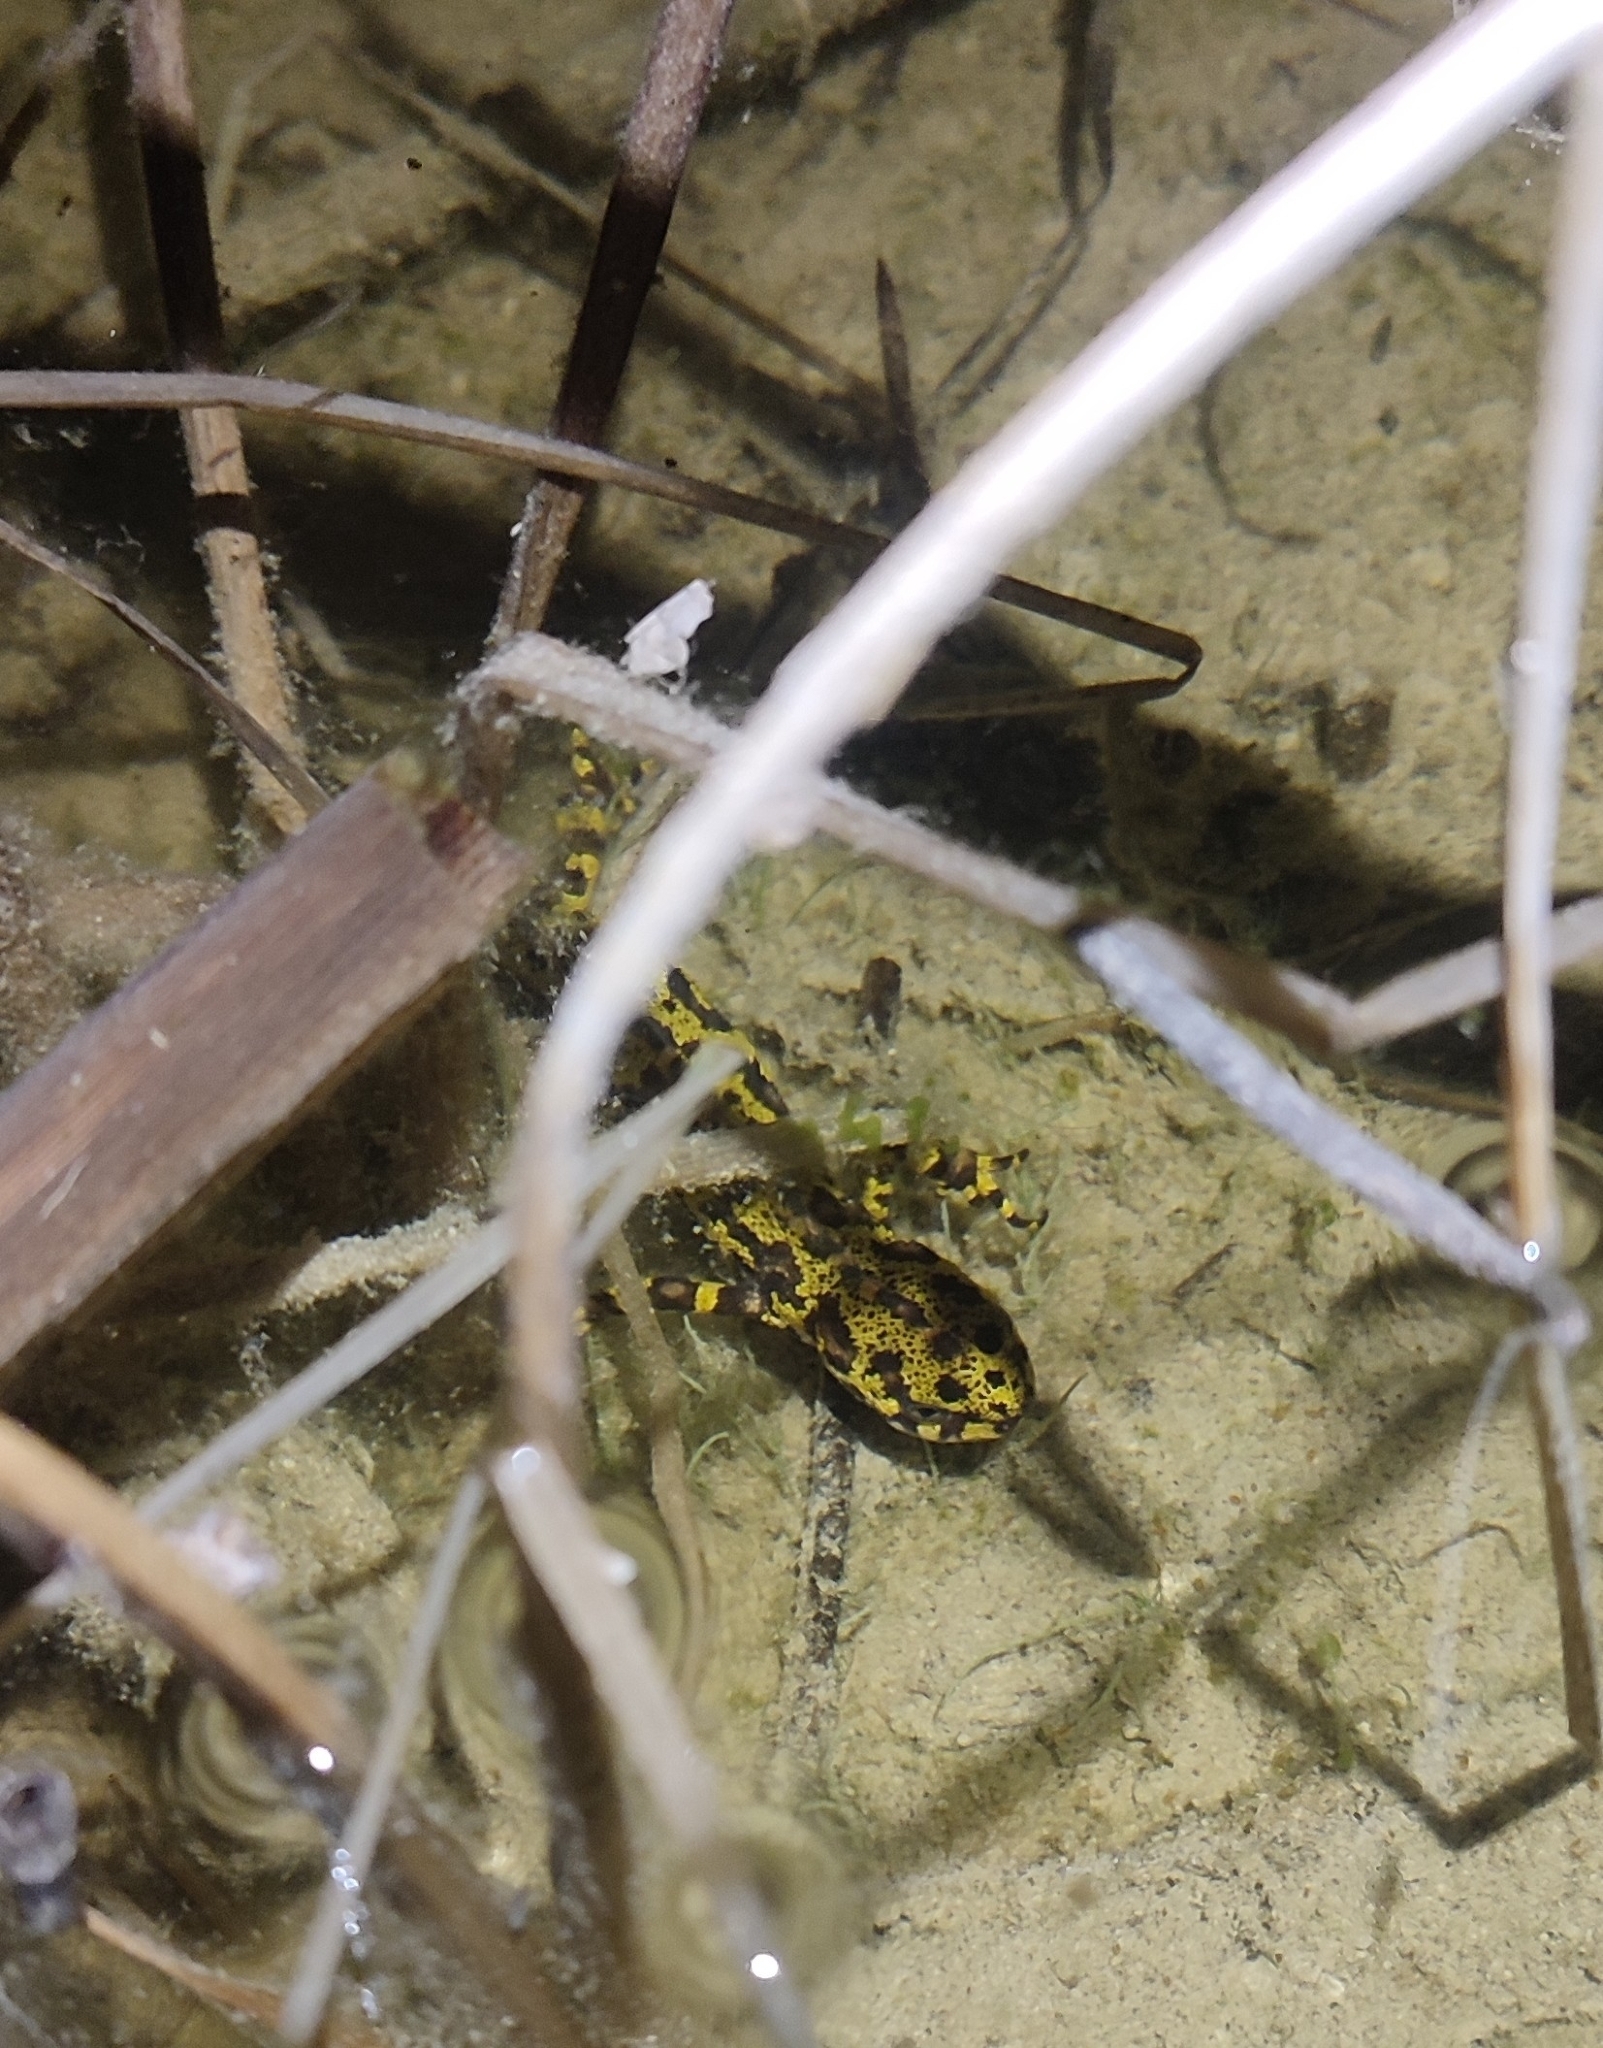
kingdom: Animalia
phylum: Chordata
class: Amphibia
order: Caudata
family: Salamandridae
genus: Triturus
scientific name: Triturus marmoratus
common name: Marbled newt
